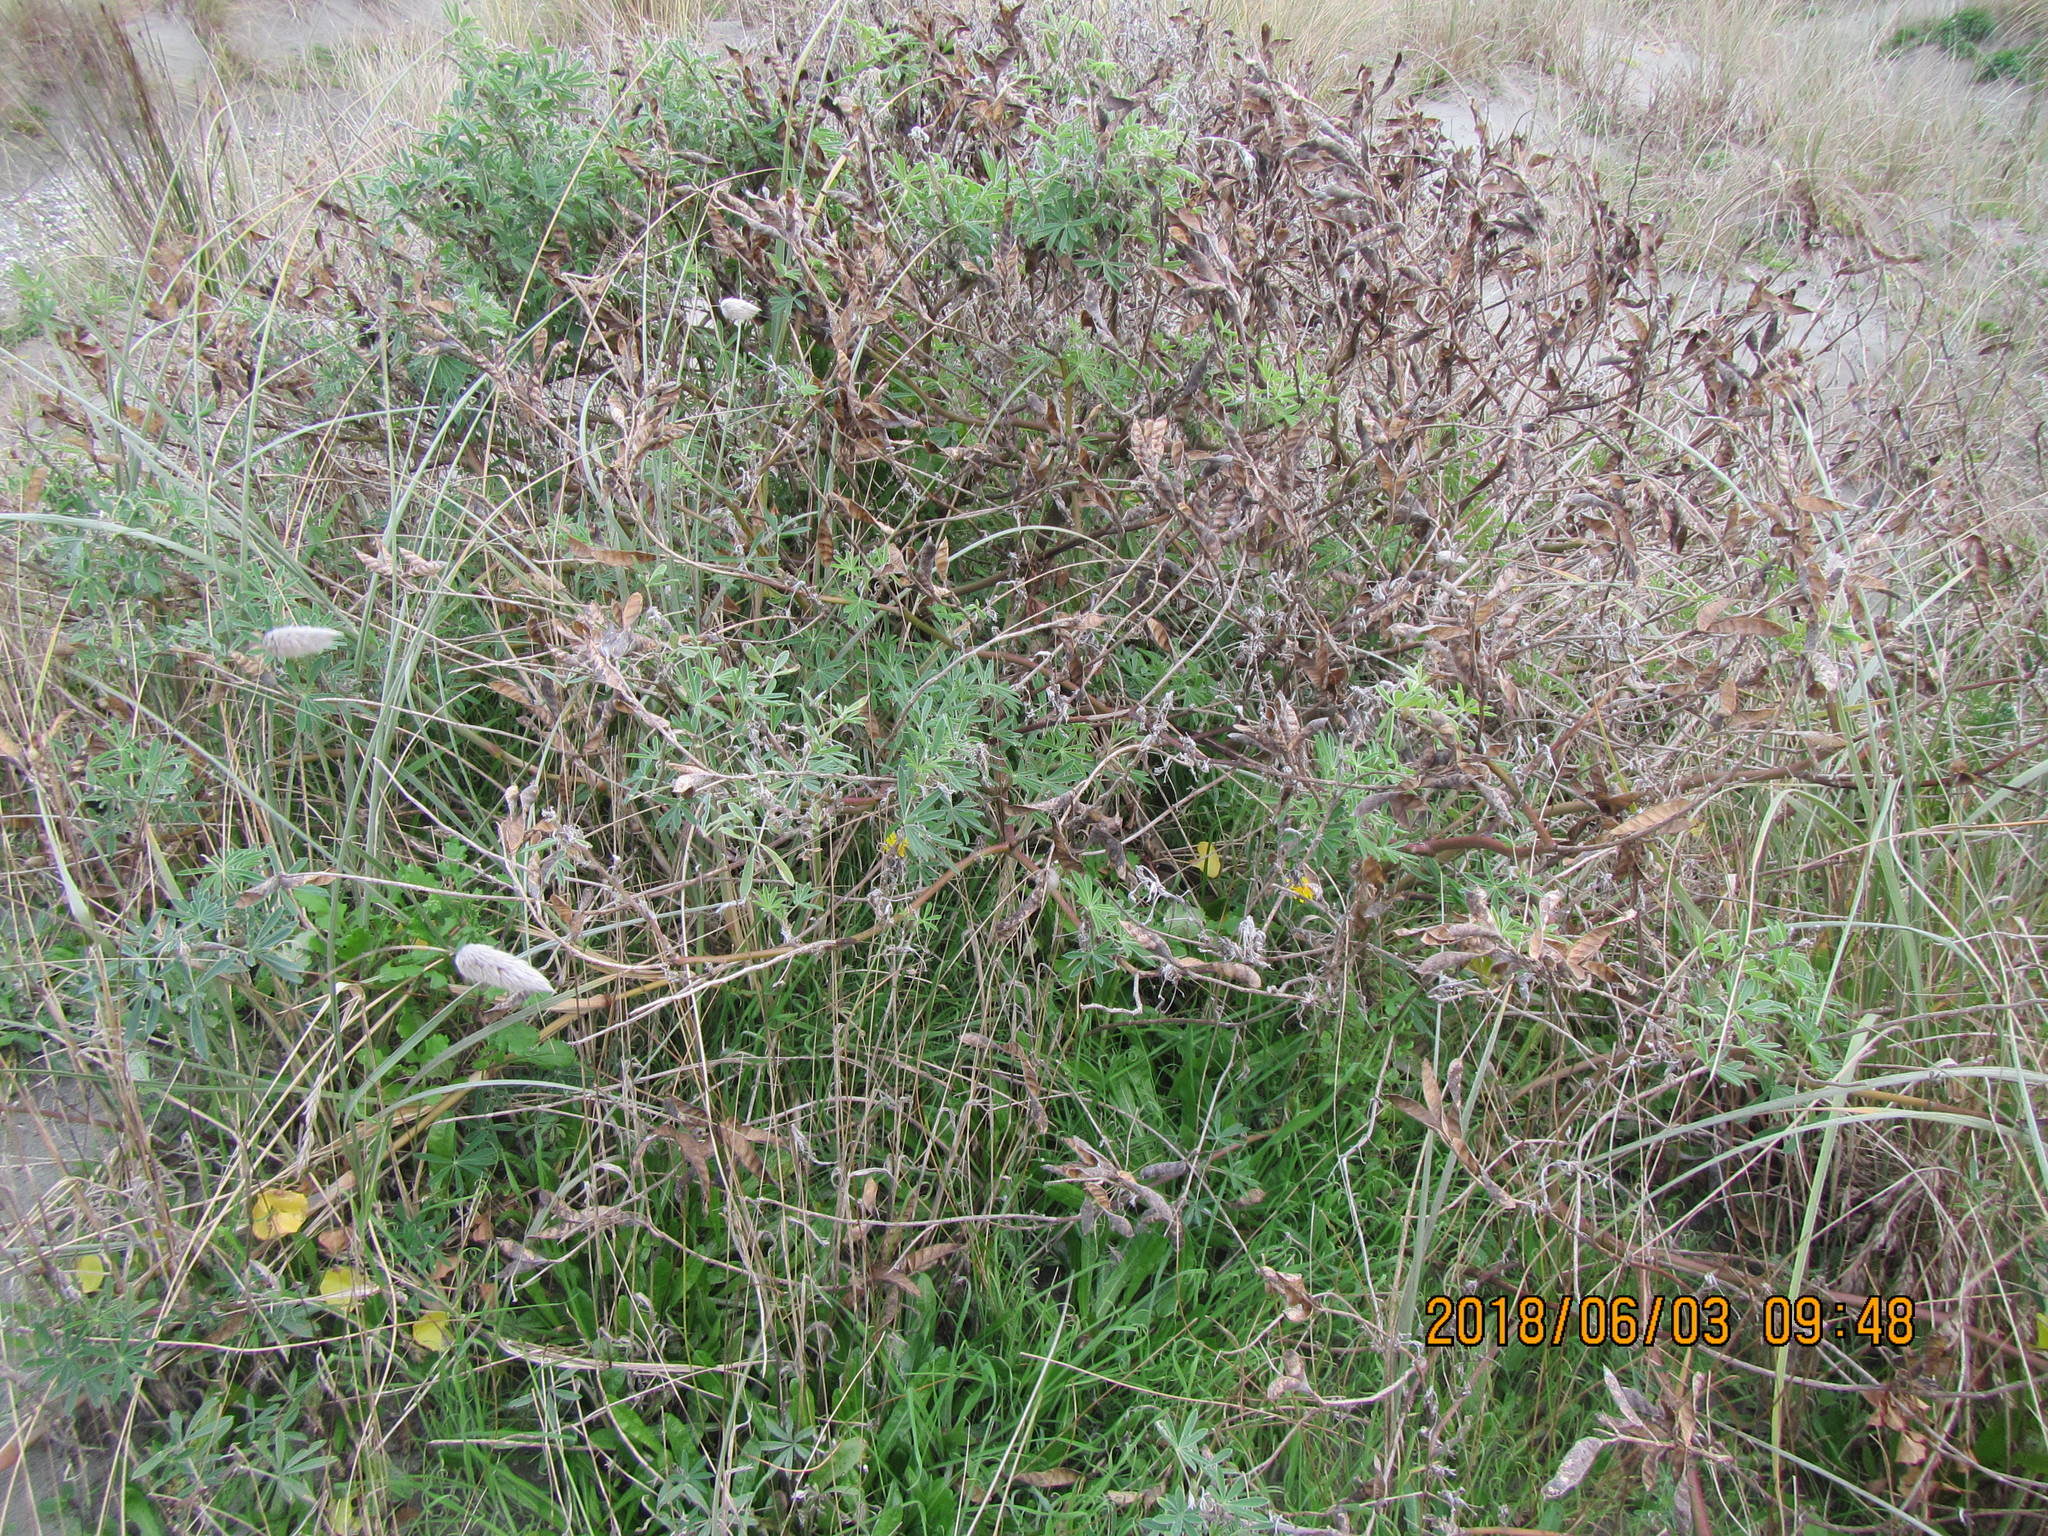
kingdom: Plantae
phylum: Tracheophyta
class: Magnoliopsida
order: Fabales
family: Fabaceae
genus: Lupinus
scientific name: Lupinus arboreus
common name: Yellow bush lupine
